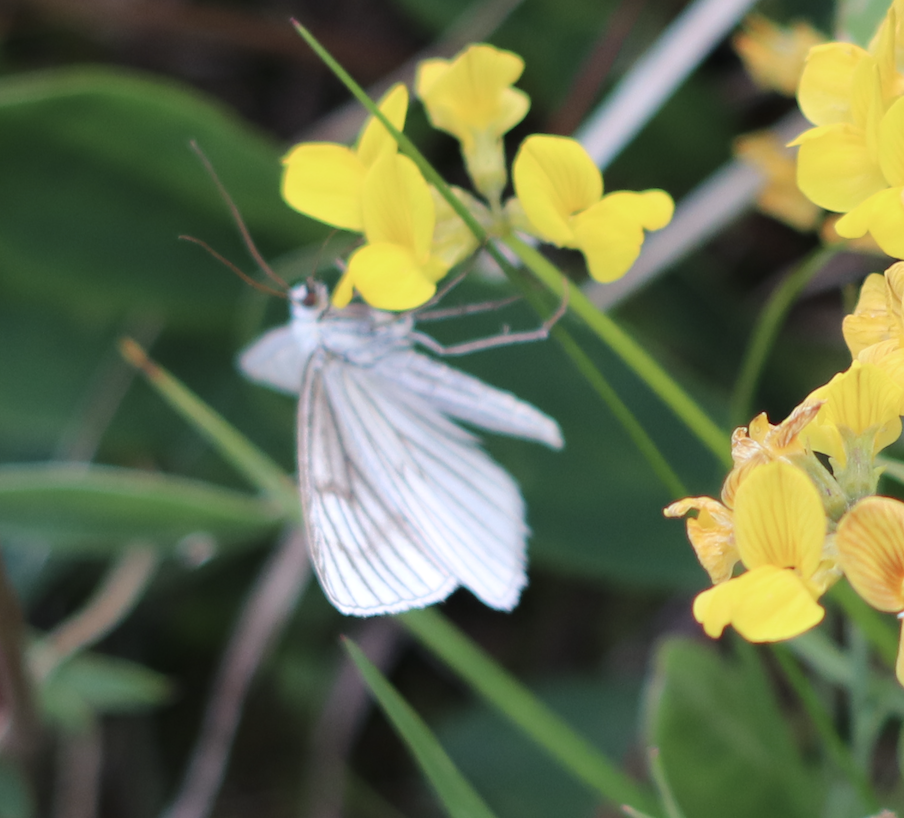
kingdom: Animalia
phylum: Arthropoda
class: Insecta
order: Lepidoptera
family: Geometridae
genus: Siona
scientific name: Siona lineata
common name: Black-veined moth
